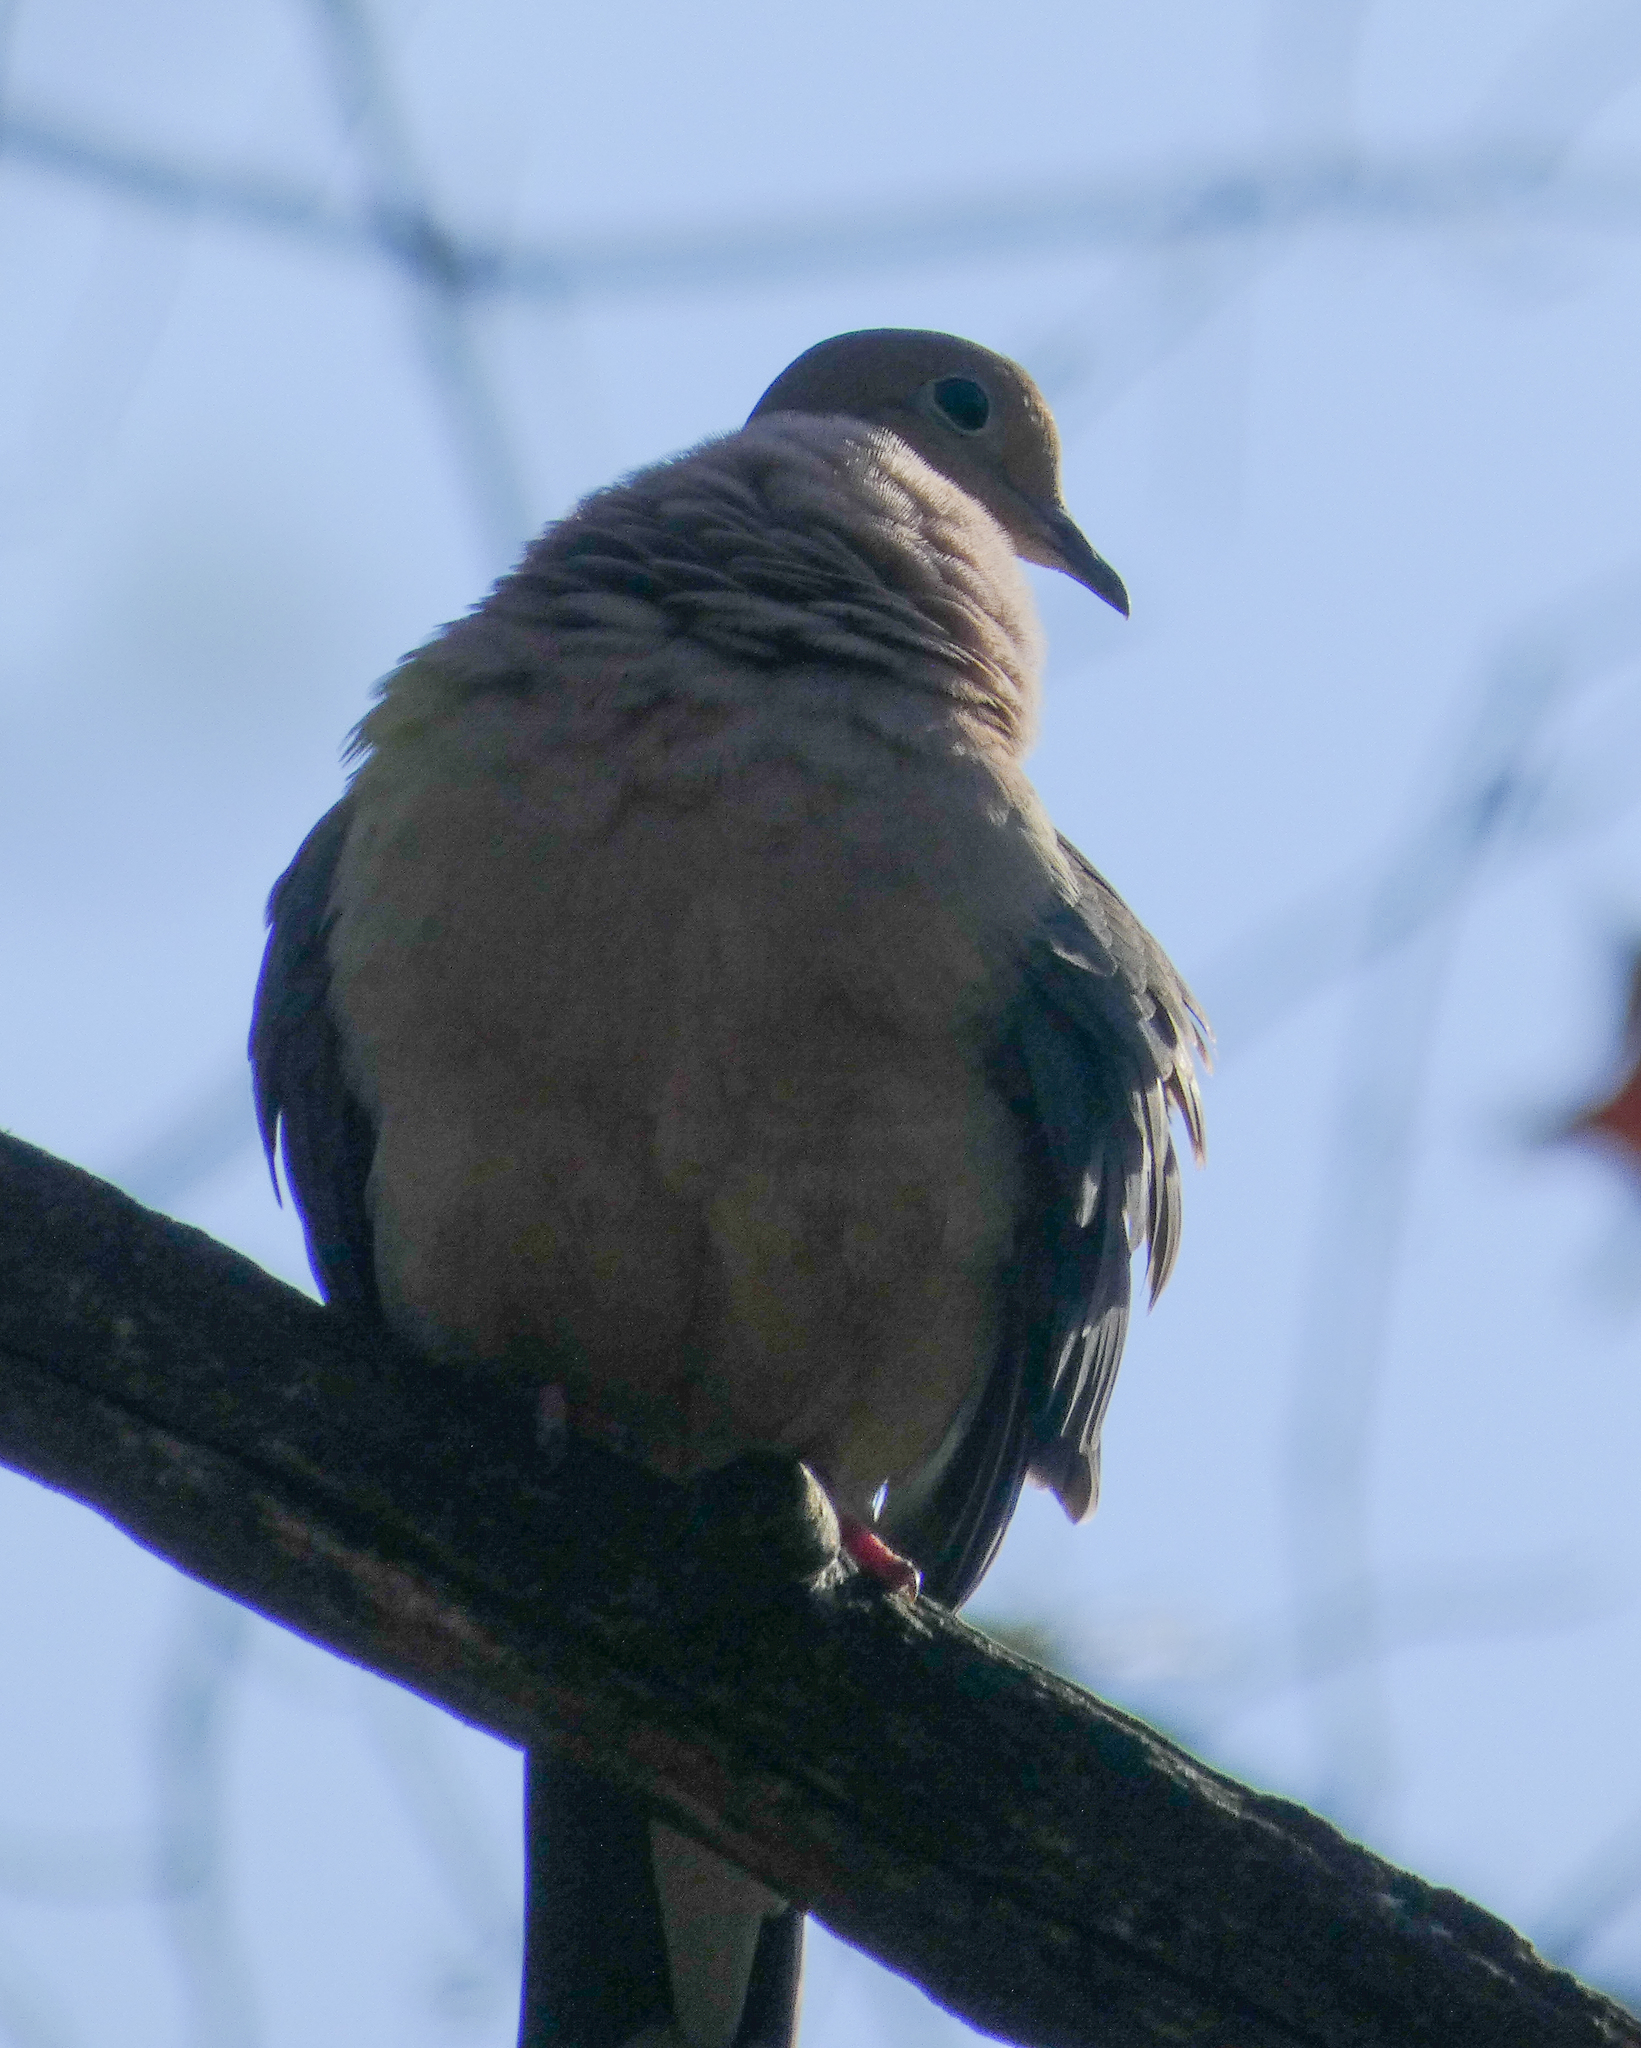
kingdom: Animalia
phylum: Chordata
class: Aves
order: Columbiformes
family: Columbidae
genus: Zenaida
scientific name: Zenaida macroura
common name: Mourning dove
